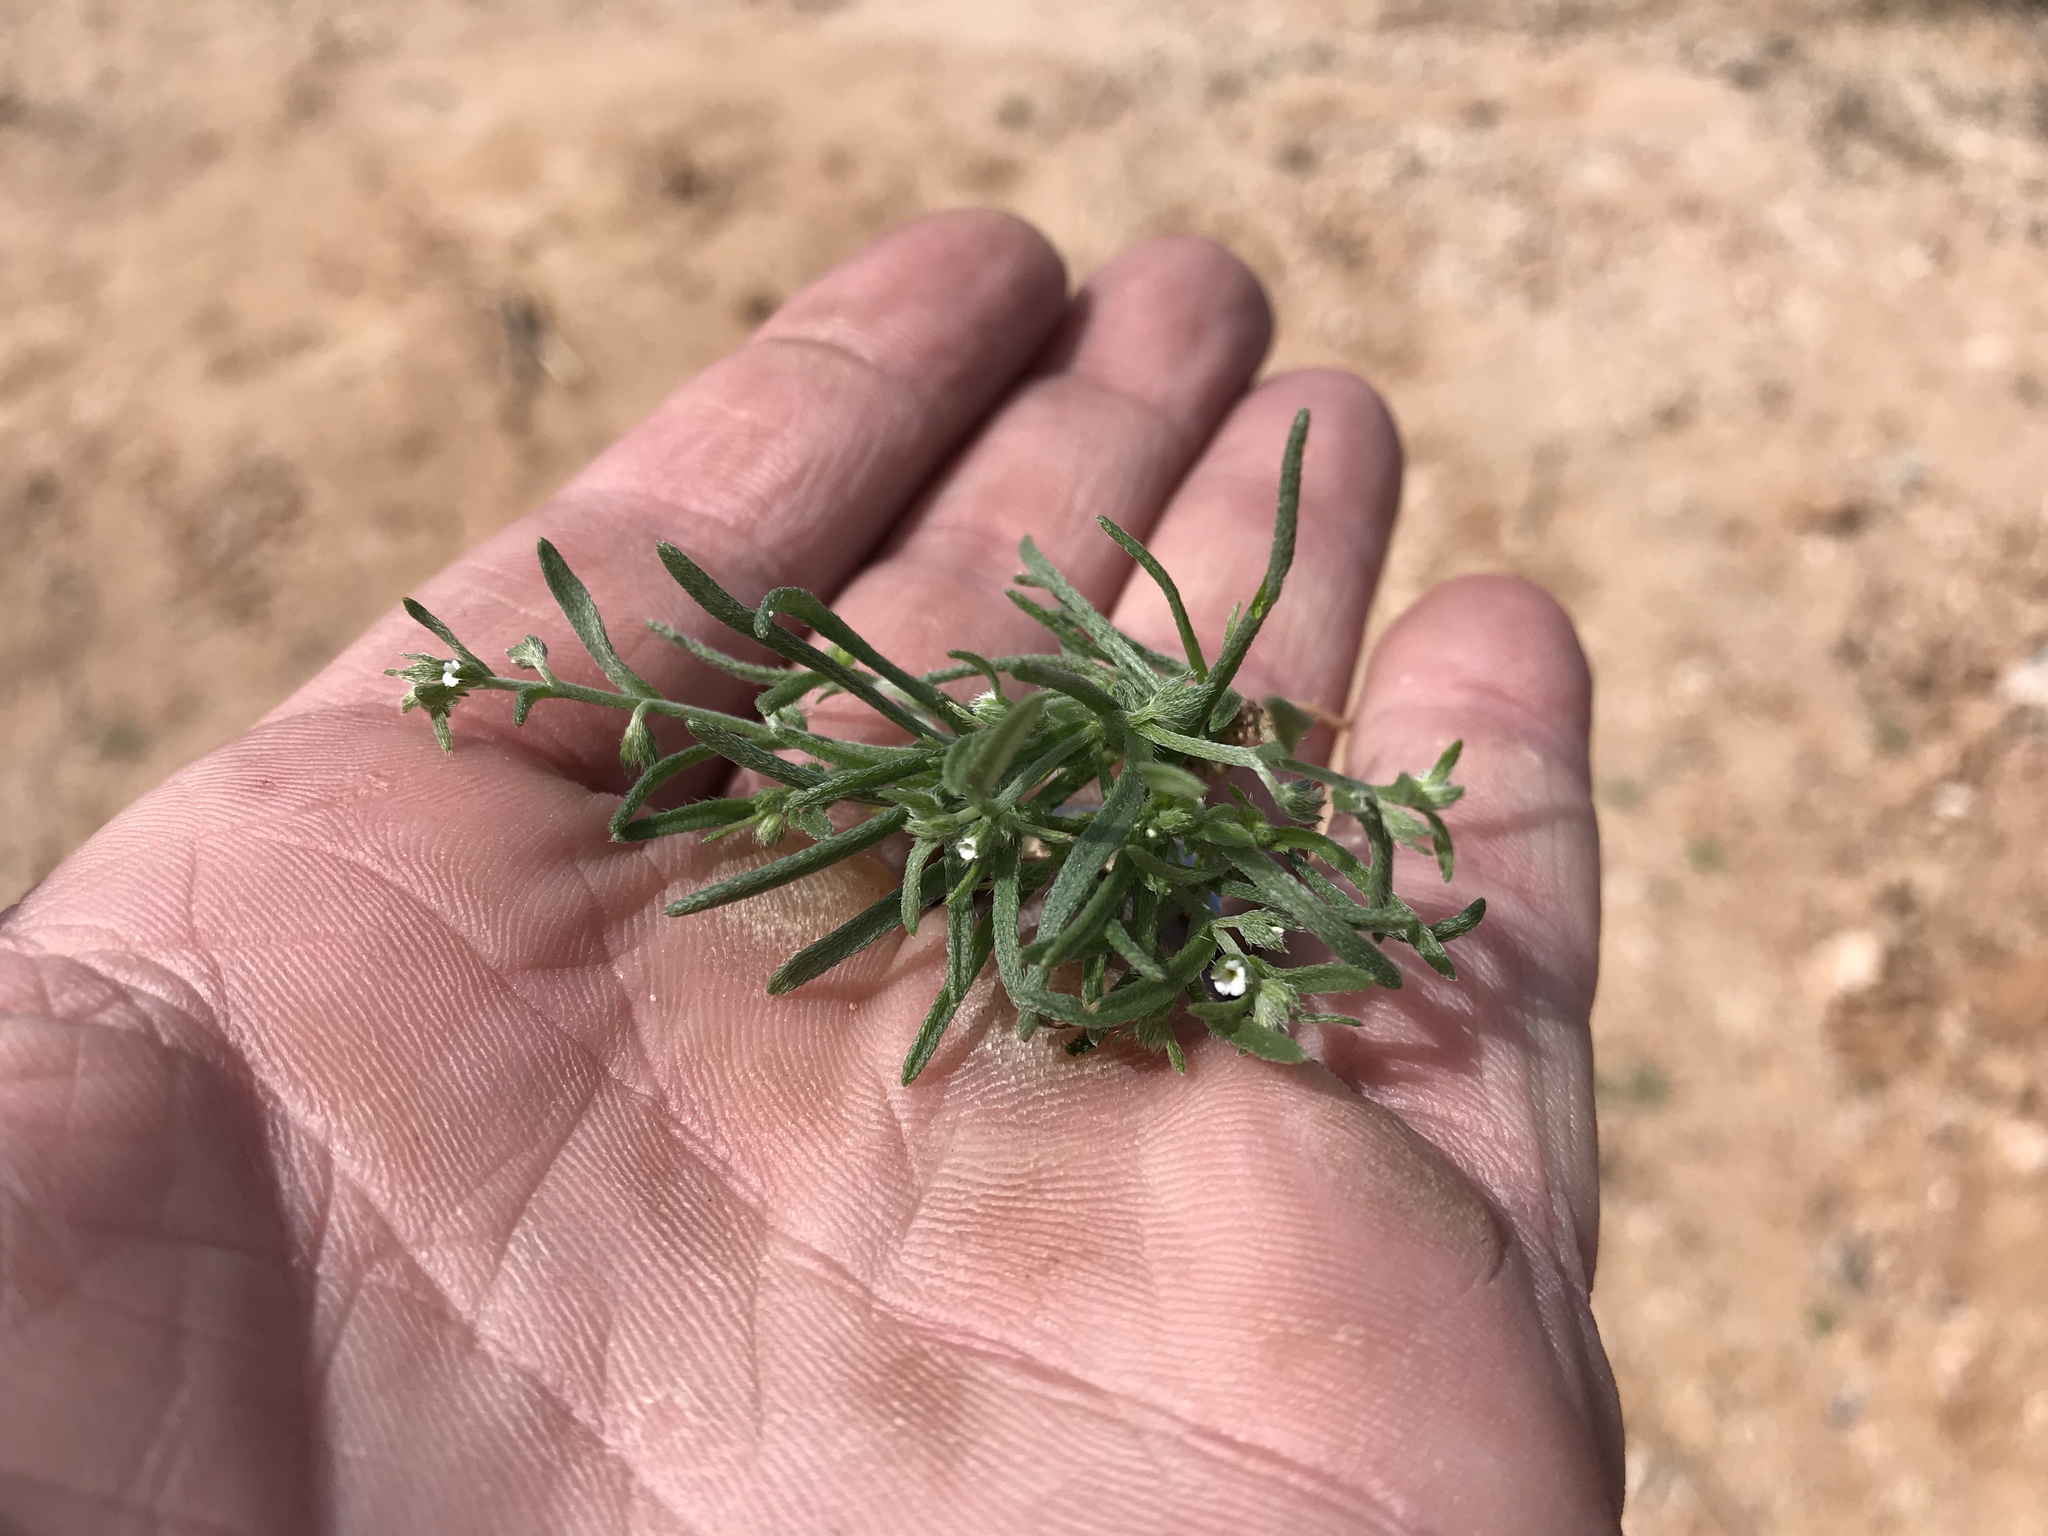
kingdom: Plantae
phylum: Tracheophyta
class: Magnoliopsida
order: Boraginales
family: Boraginaceae
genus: Pectocarya
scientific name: Pectocarya platycarpa
